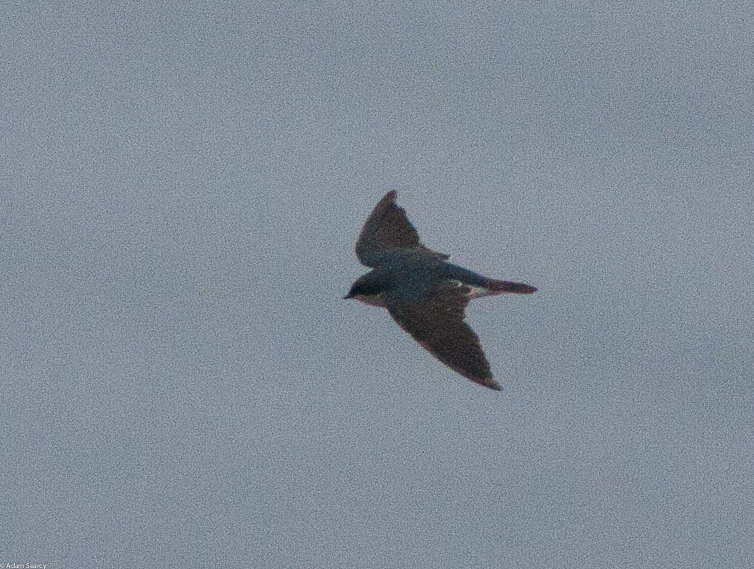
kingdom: Animalia
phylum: Chordata
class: Aves
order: Passeriformes
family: Hirundinidae
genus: Tachycineta
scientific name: Tachycineta bicolor
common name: Tree swallow
